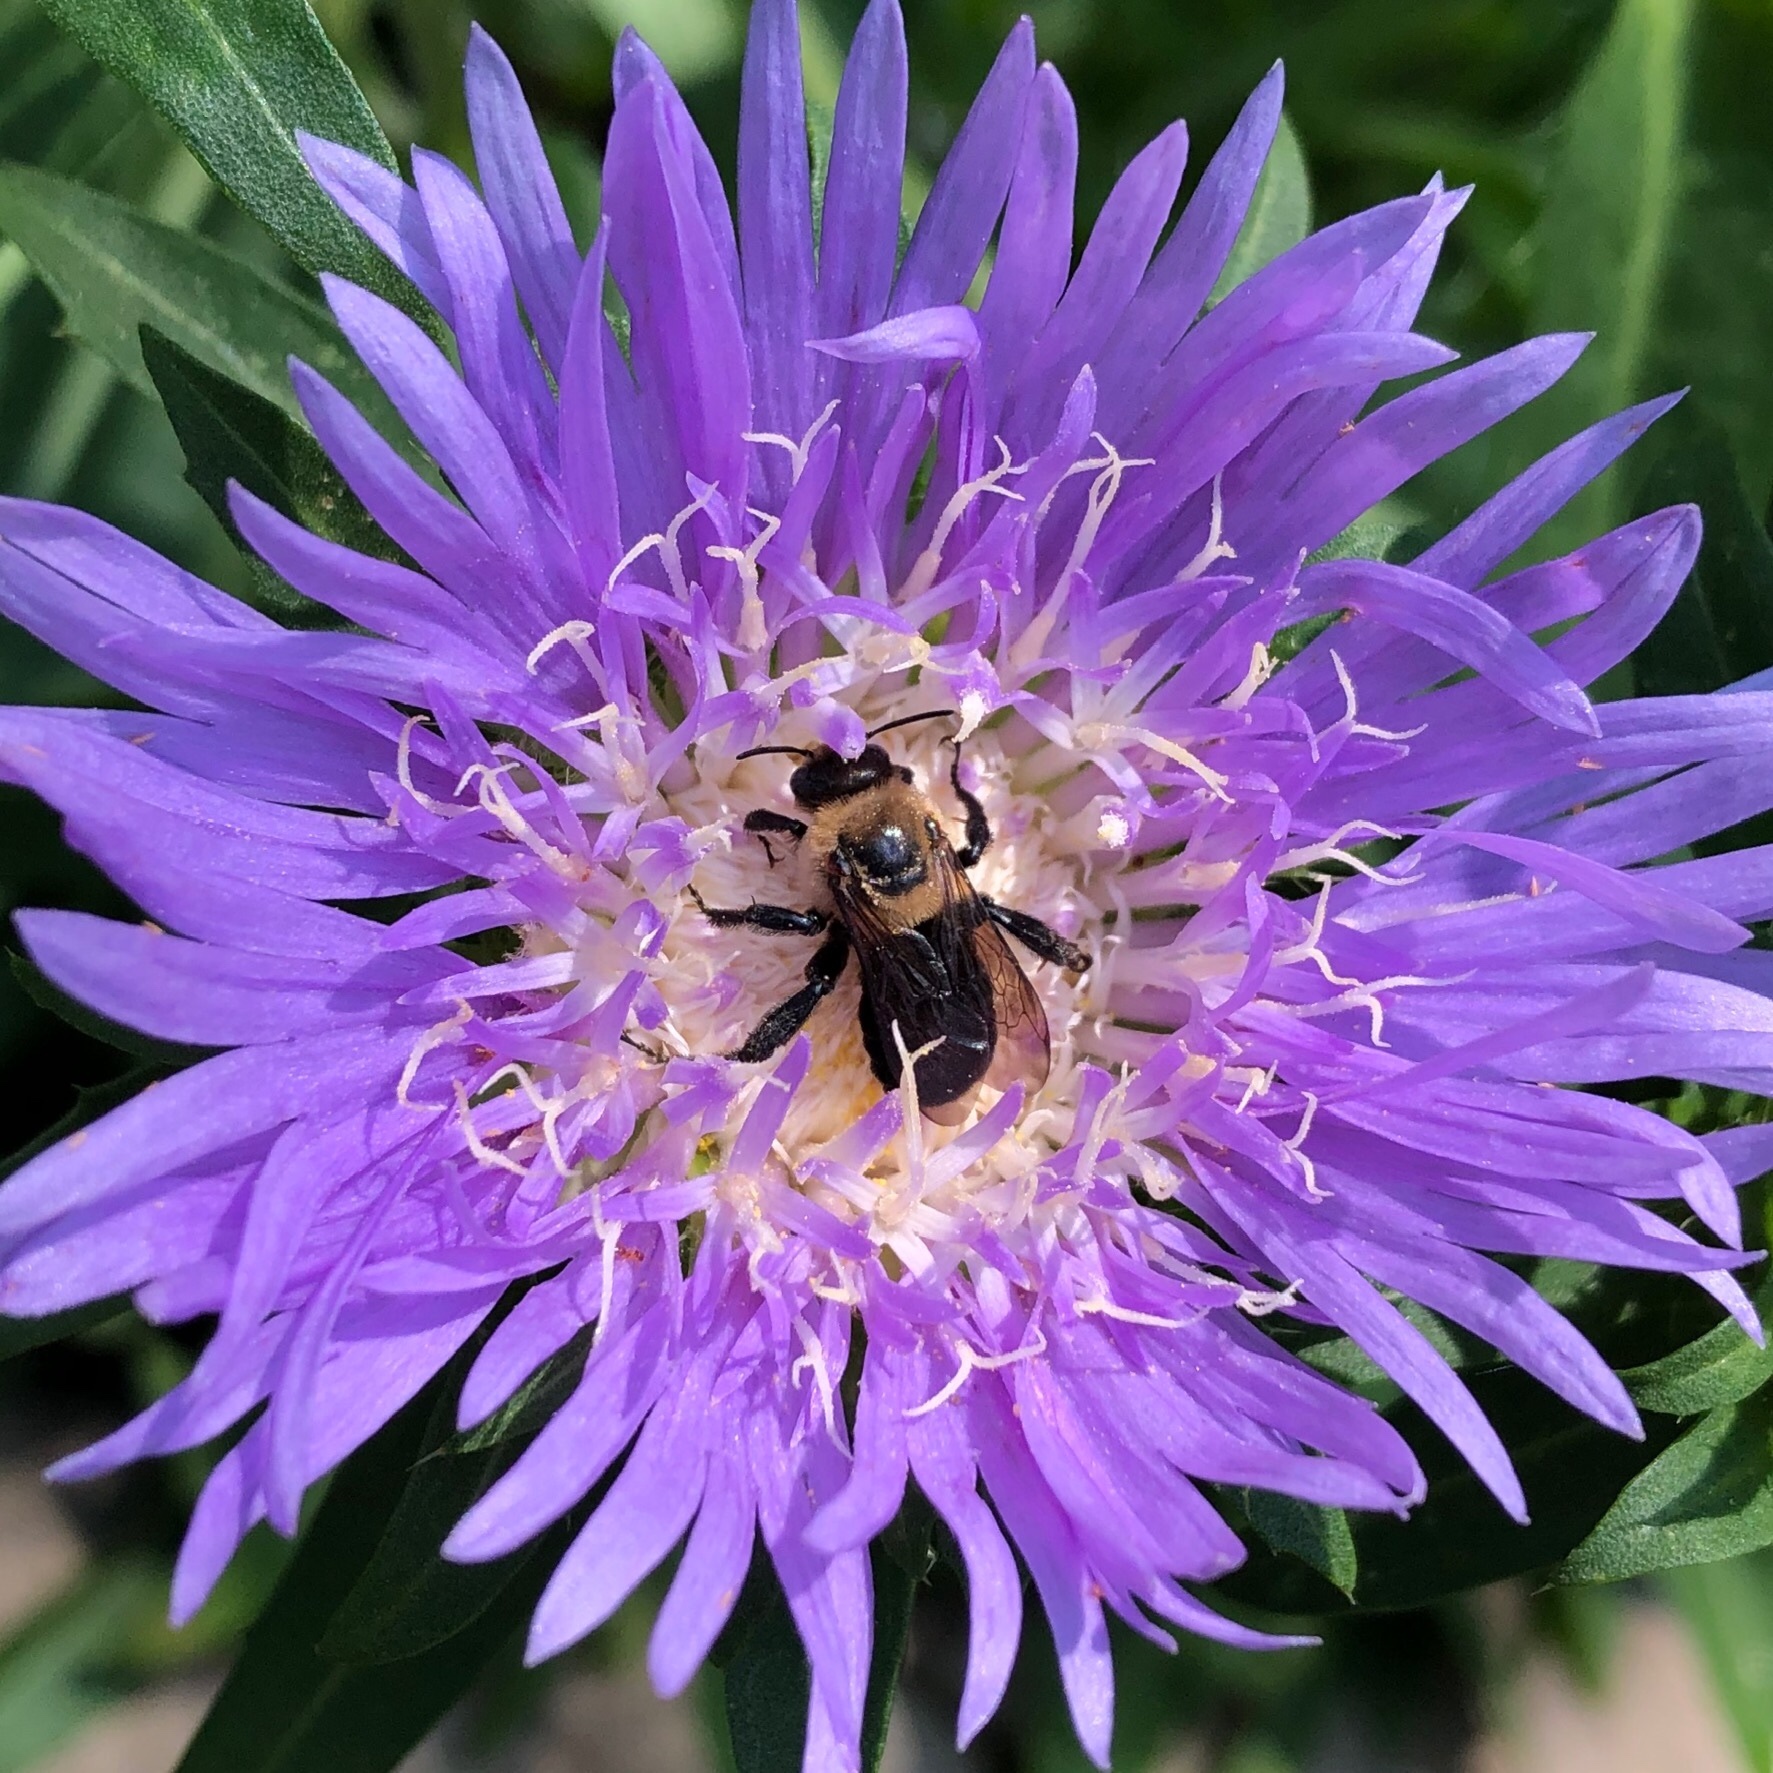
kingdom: Animalia
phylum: Arthropoda
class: Insecta
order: Hymenoptera
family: Apidae
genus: Xylocopa
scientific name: Xylocopa virginica
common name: Carpenter bee
